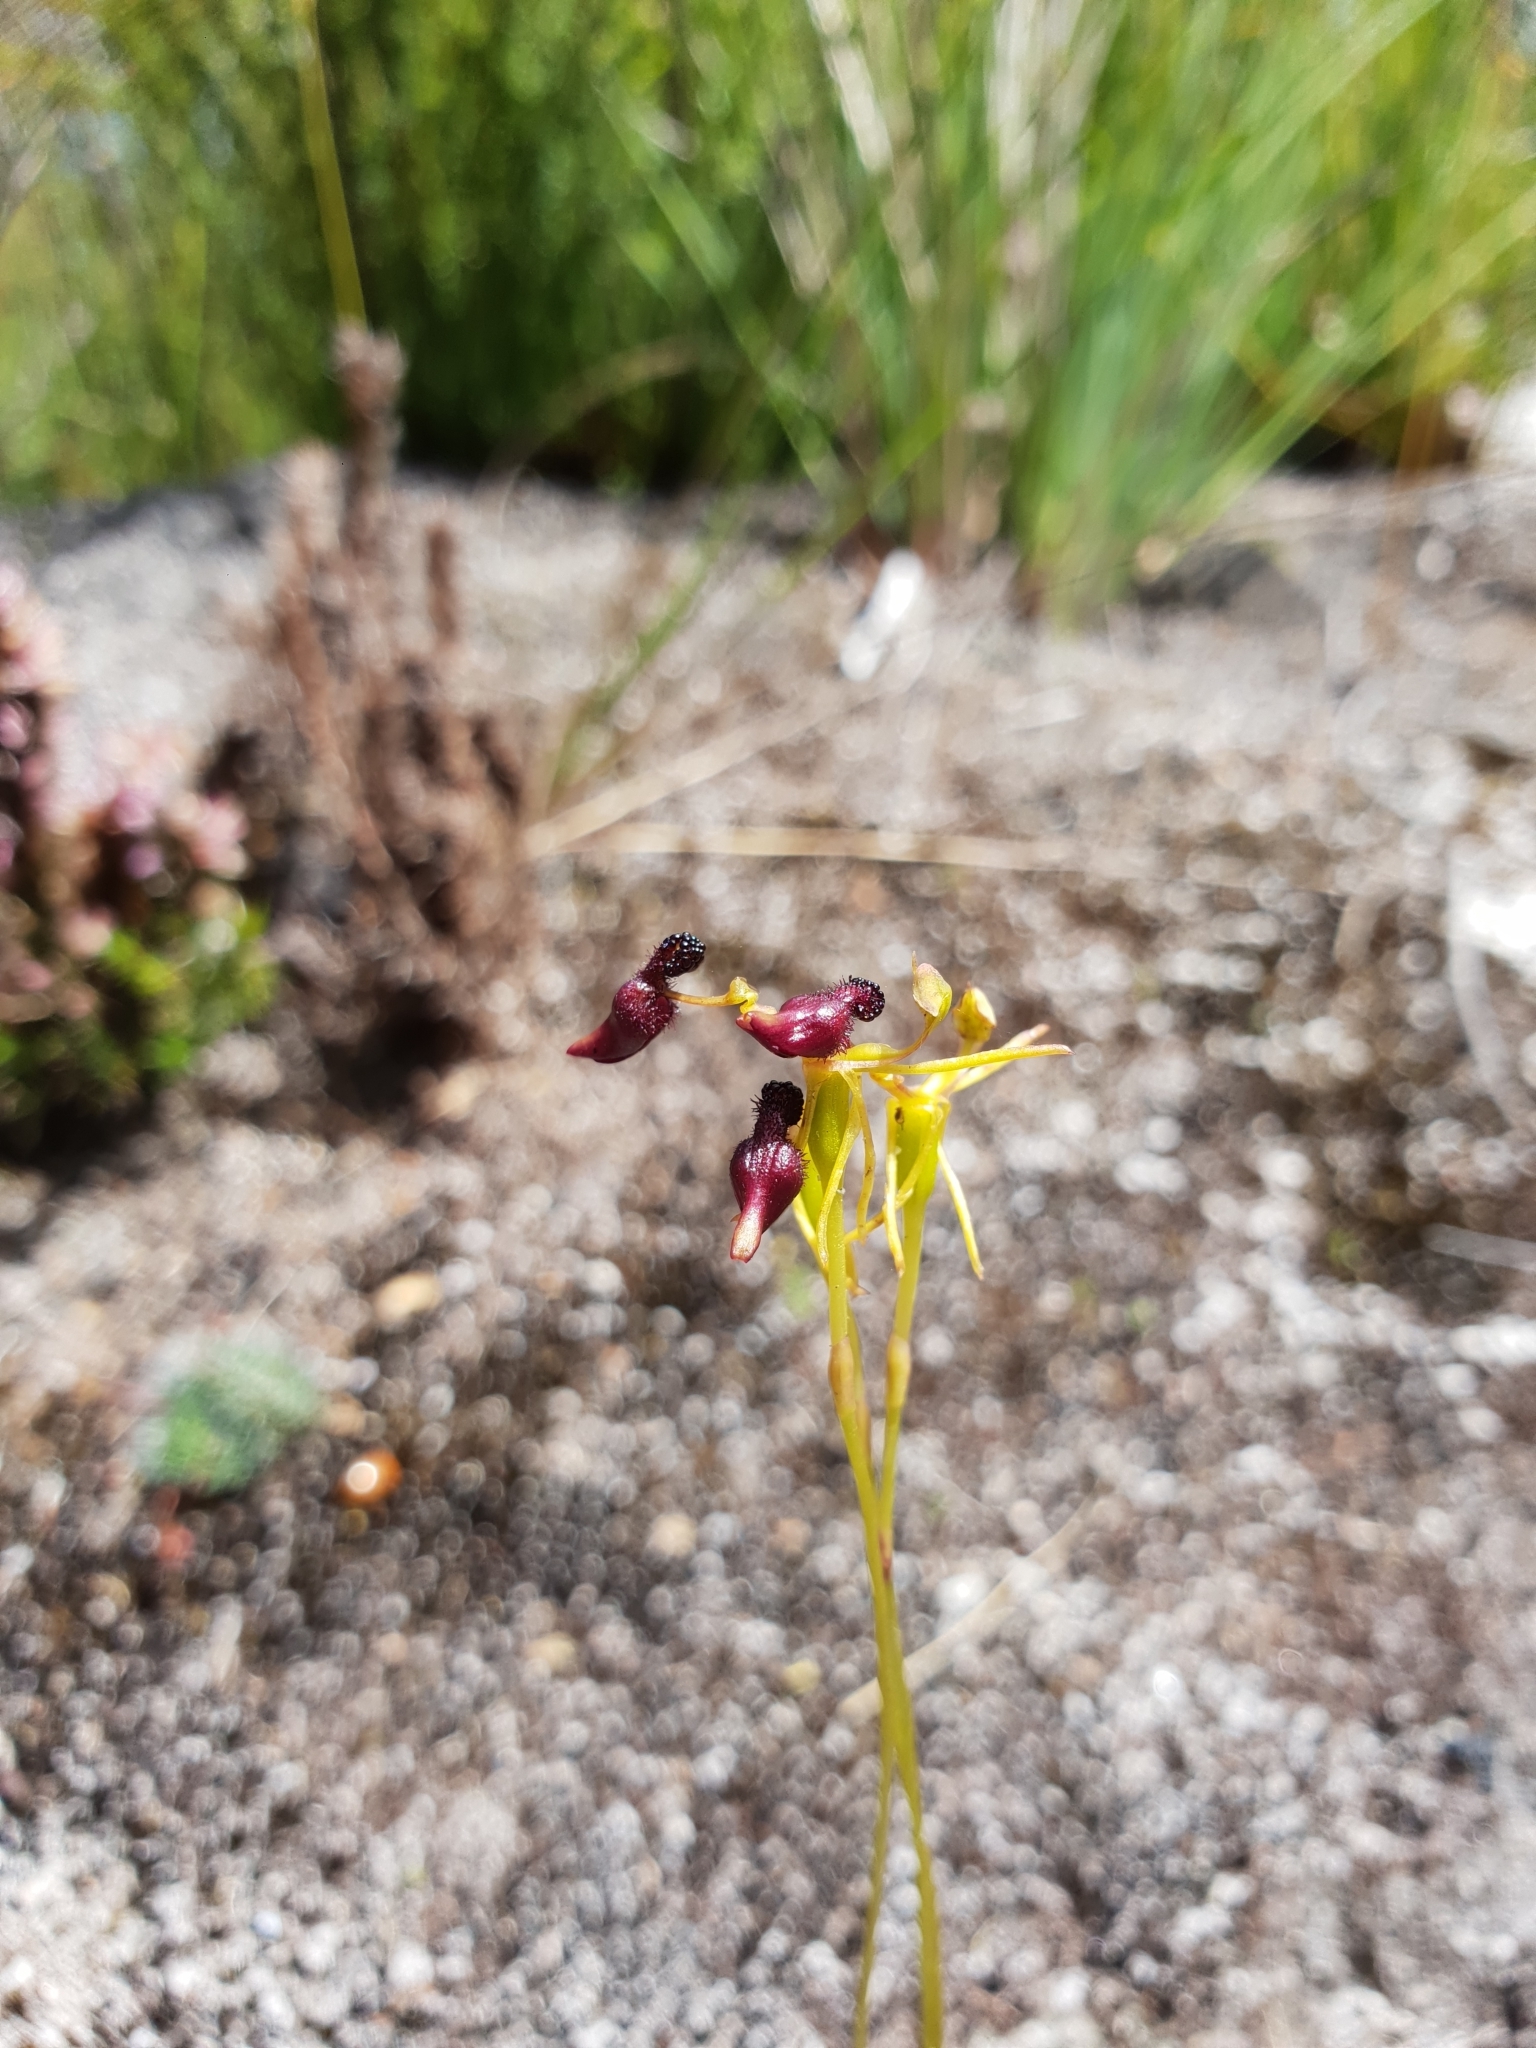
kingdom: Plantae
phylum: Tracheophyta
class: Liliopsida
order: Asparagales
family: Orchidaceae
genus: Drakaea
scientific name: Drakaea micrantha
